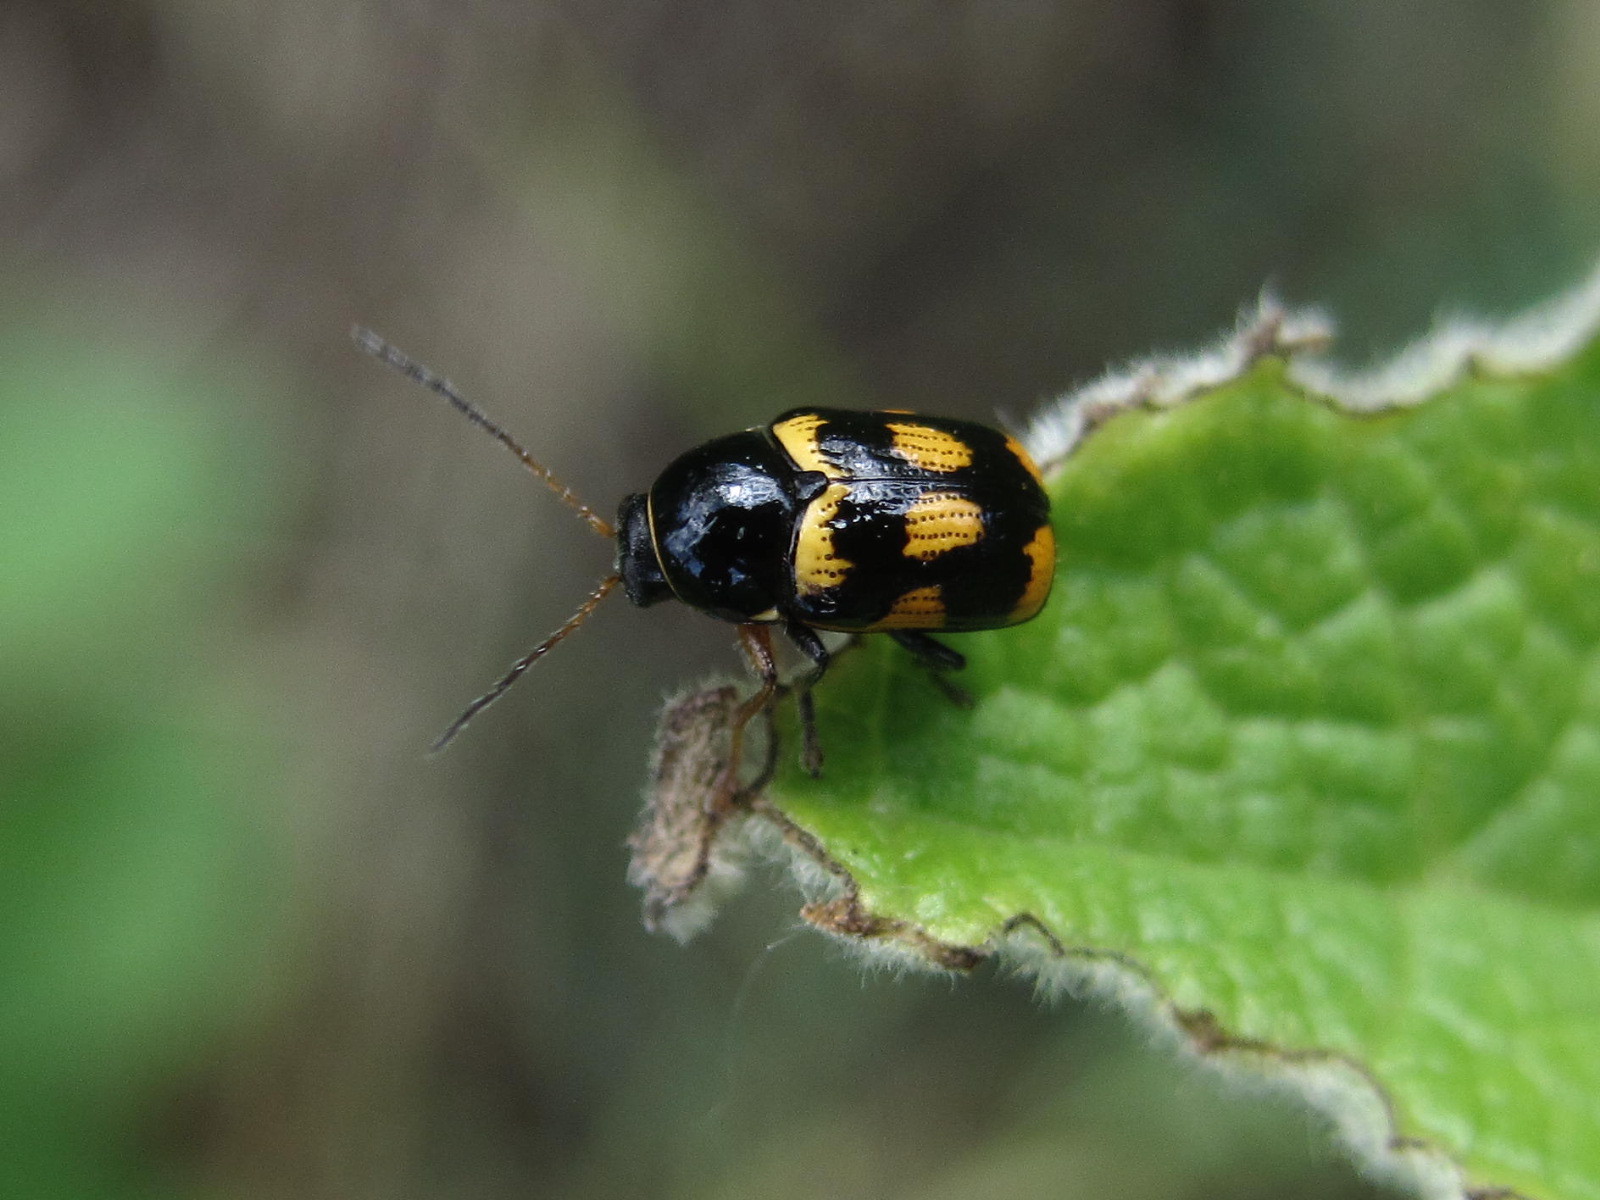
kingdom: Animalia
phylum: Arthropoda
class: Insecta
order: Coleoptera
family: Chrysomelidae
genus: Cryptocephalus
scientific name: Cryptocephalus anticus
